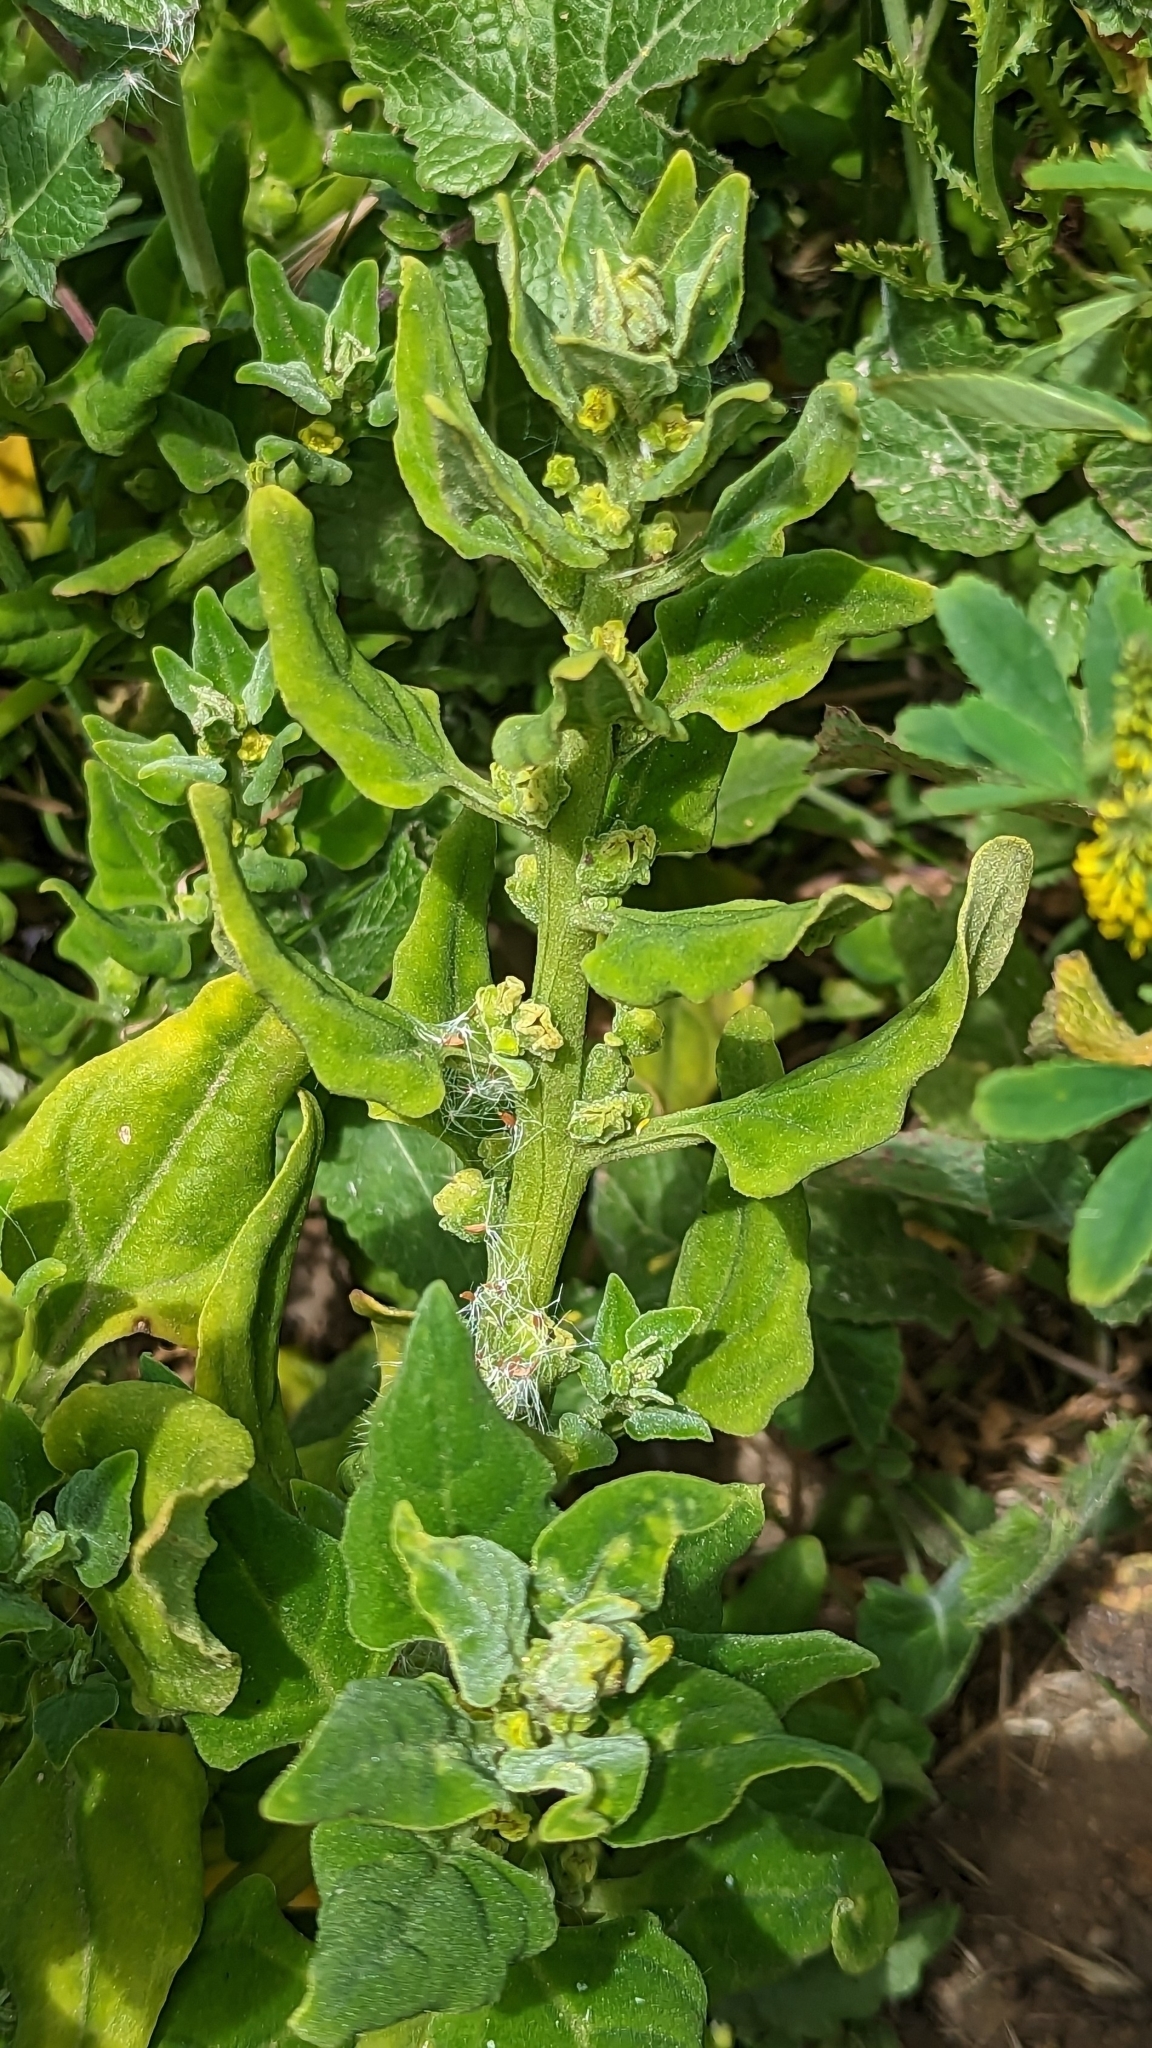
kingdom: Plantae
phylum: Tracheophyta
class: Magnoliopsida
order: Caryophyllales
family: Aizoaceae
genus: Tetragonia
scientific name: Tetragonia tetragonoides
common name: New zealand-spinach
